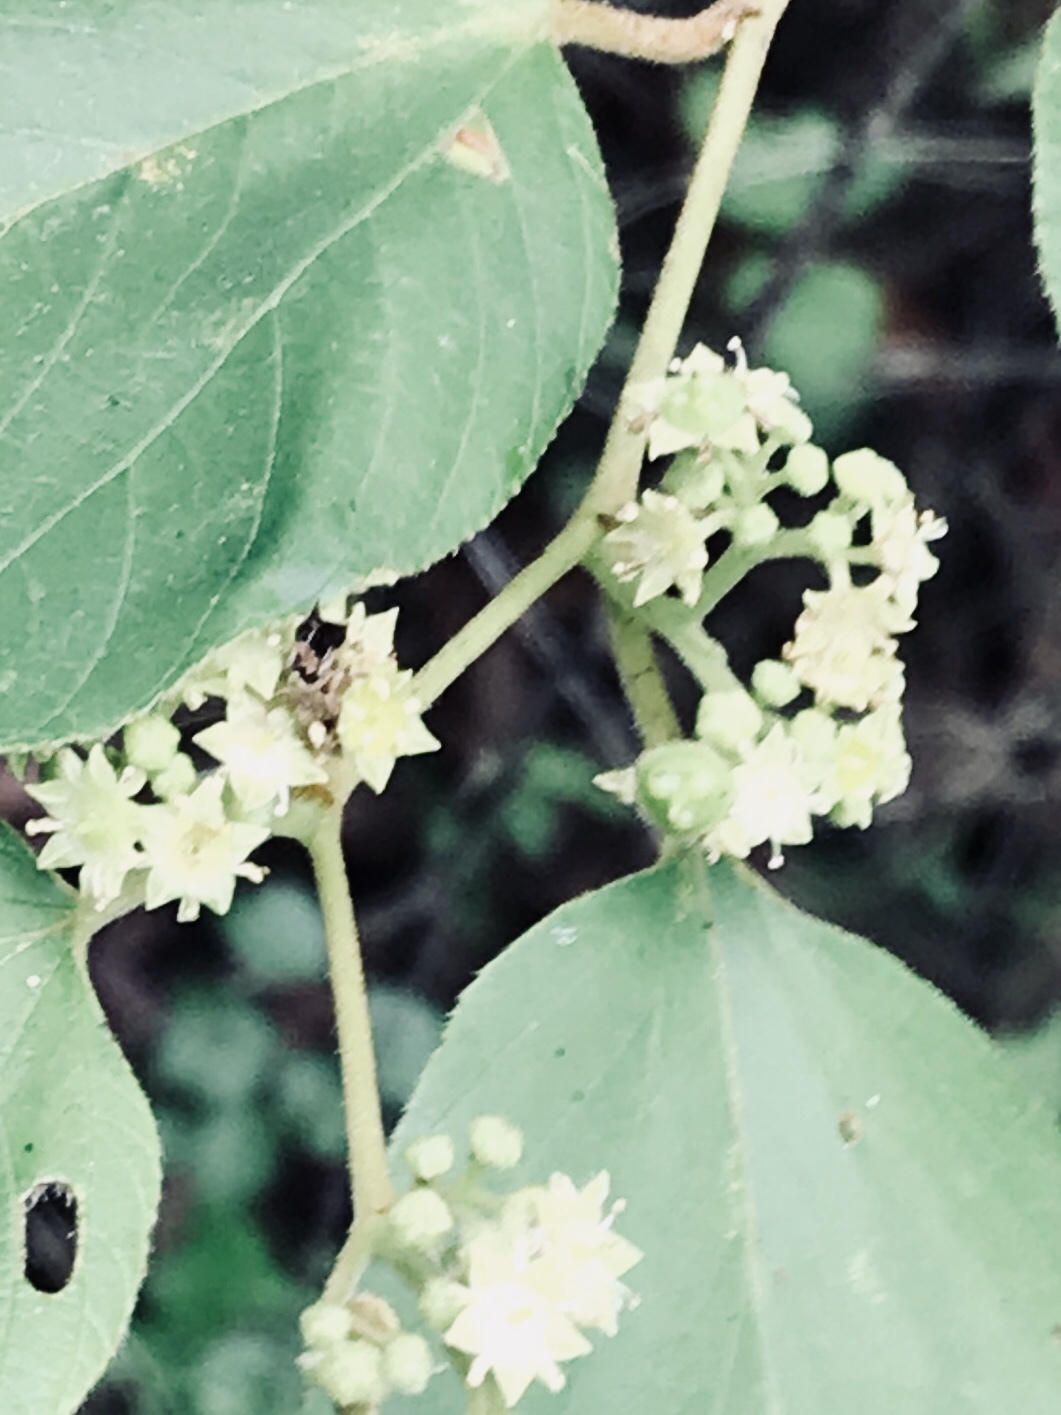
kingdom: Plantae
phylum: Tracheophyta
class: Magnoliopsida
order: Rosales
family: Rhamnaceae
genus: Colubrina
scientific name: Colubrina greggii
